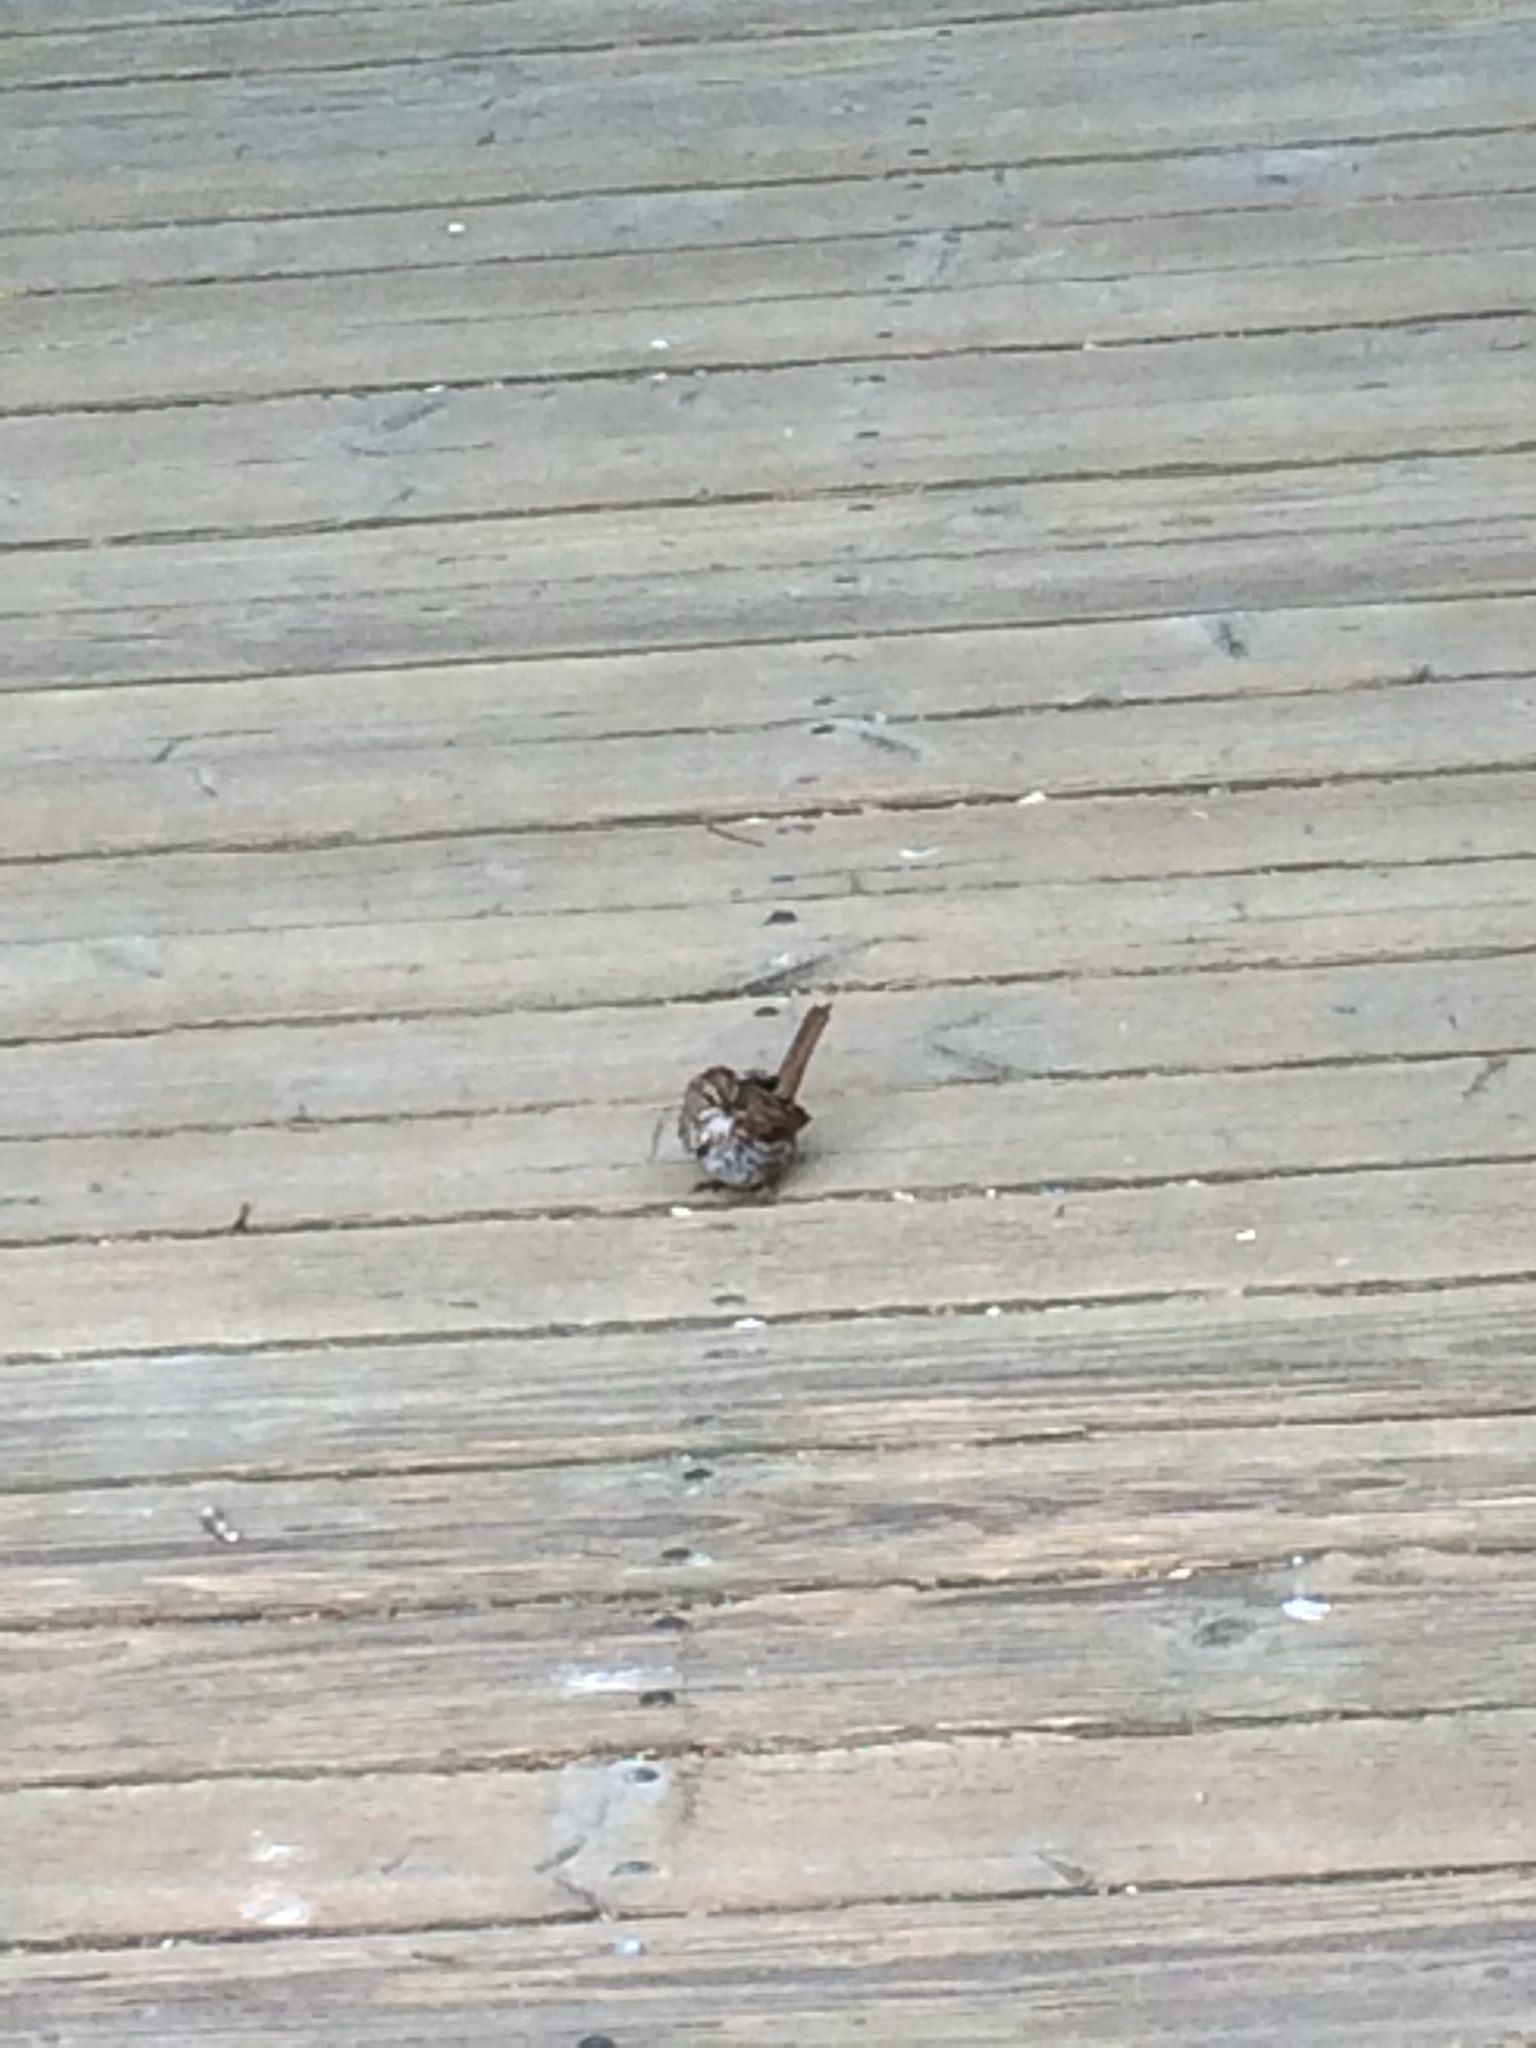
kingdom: Animalia
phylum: Chordata
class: Aves
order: Passeriformes
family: Passerellidae
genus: Melospiza
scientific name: Melospiza melodia
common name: Song sparrow
